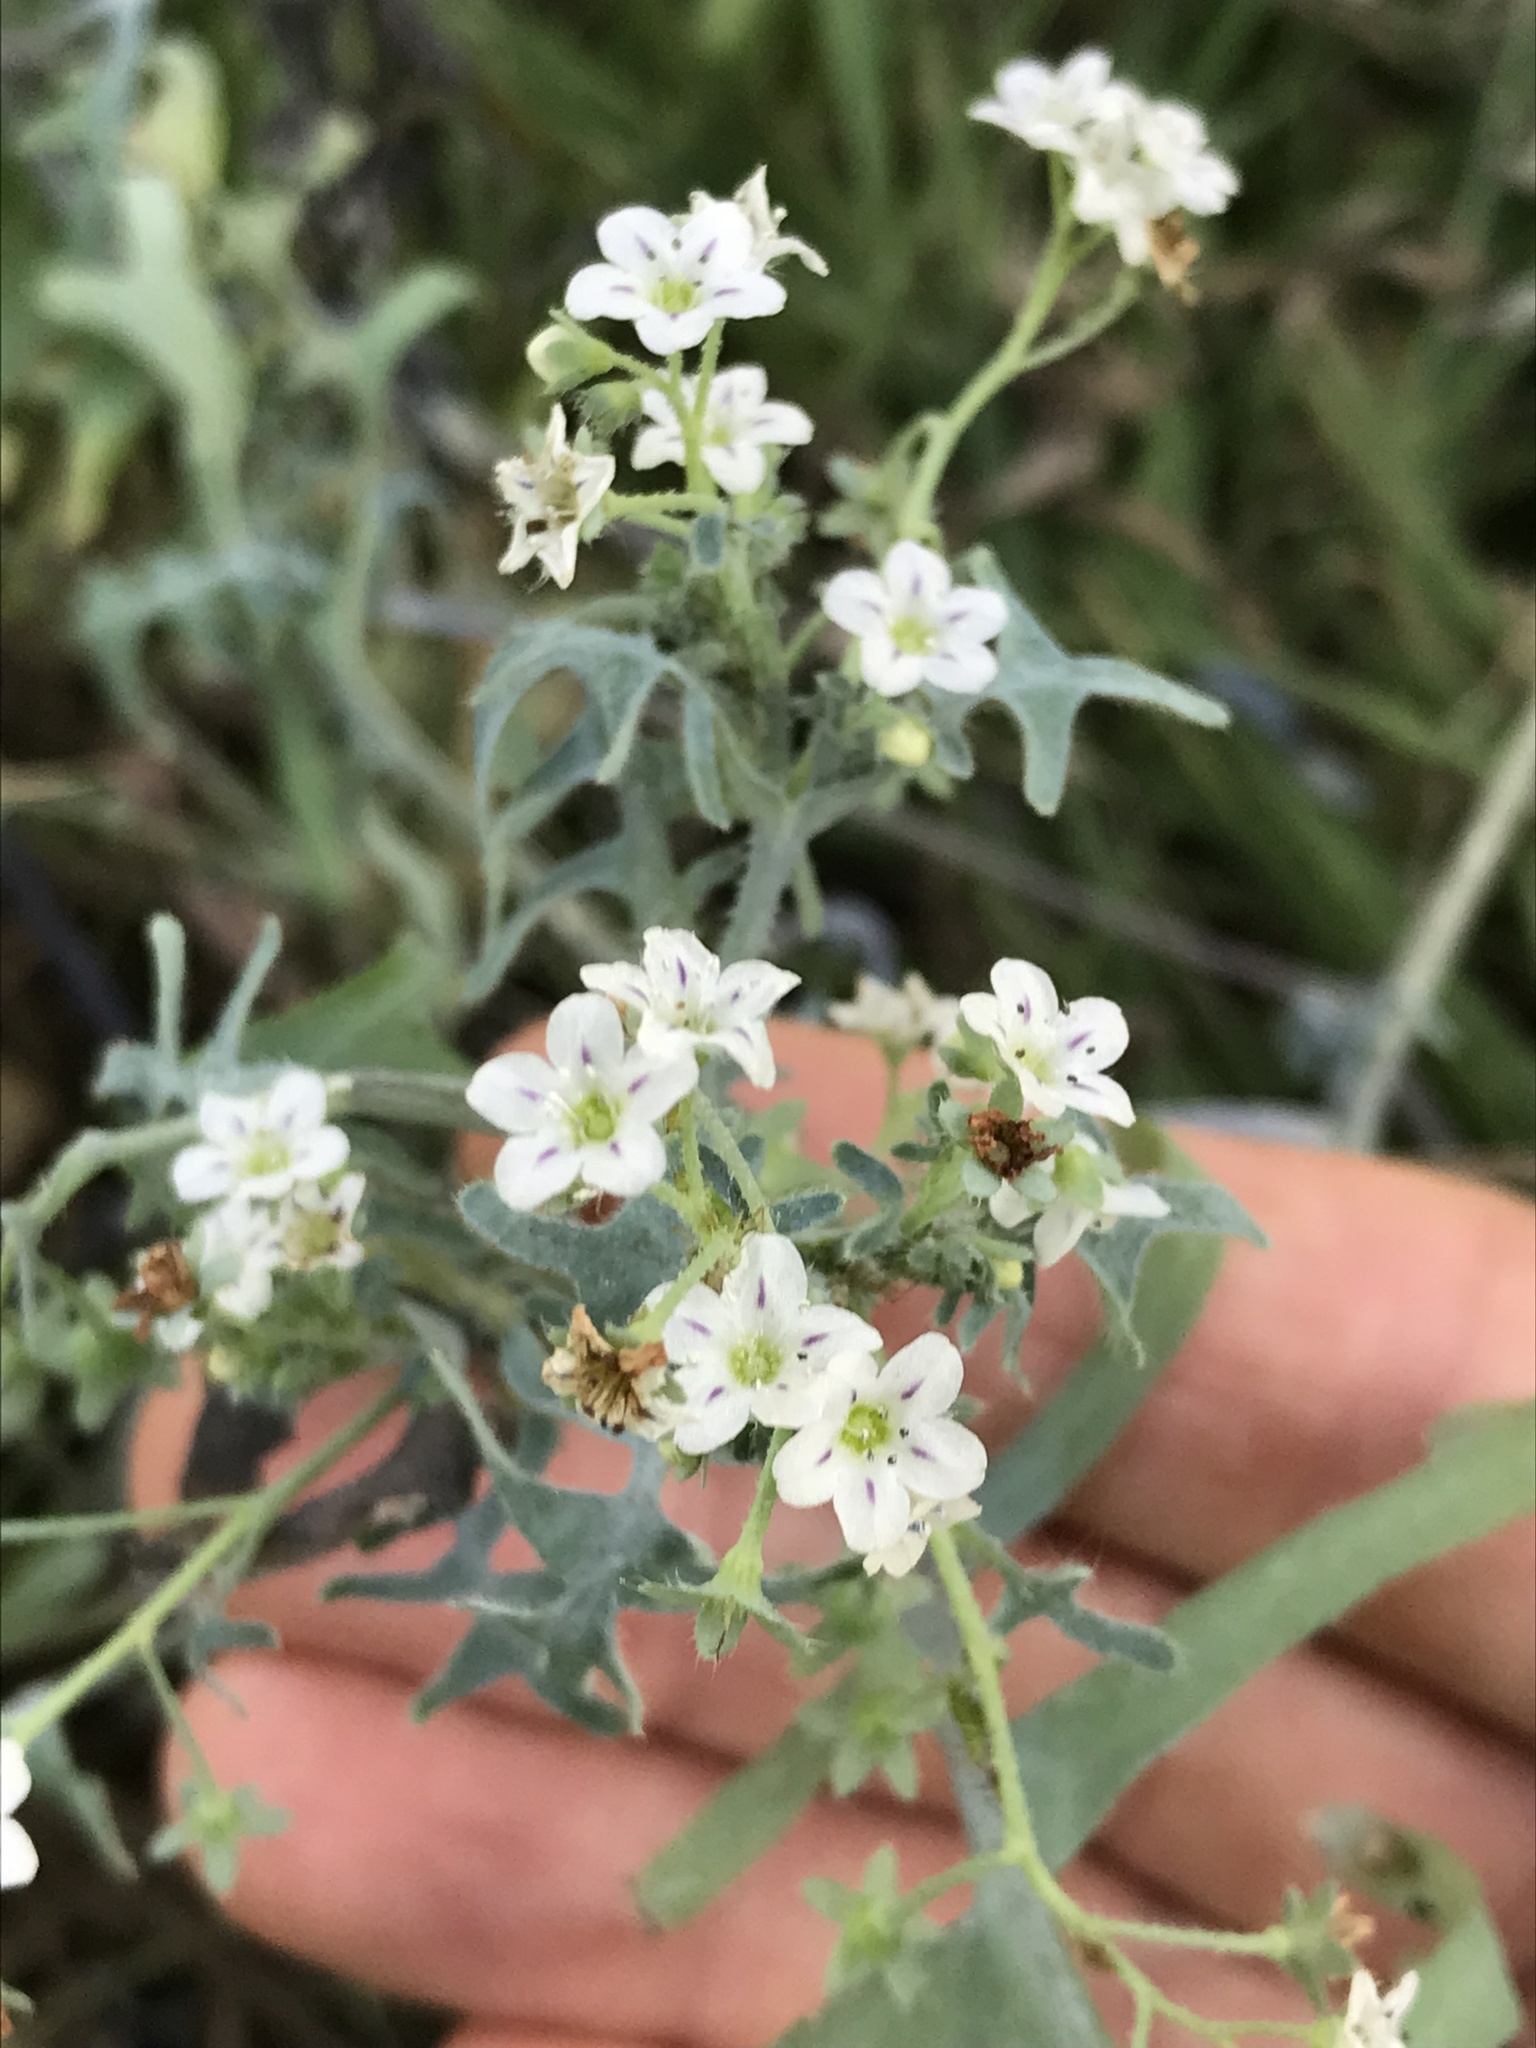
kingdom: Plantae
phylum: Tracheophyta
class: Magnoliopsida
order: Boraginales
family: Hydrophyllaceae
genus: Pholistoma
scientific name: Pholistoma membranaceum
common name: White fiesta-flower
